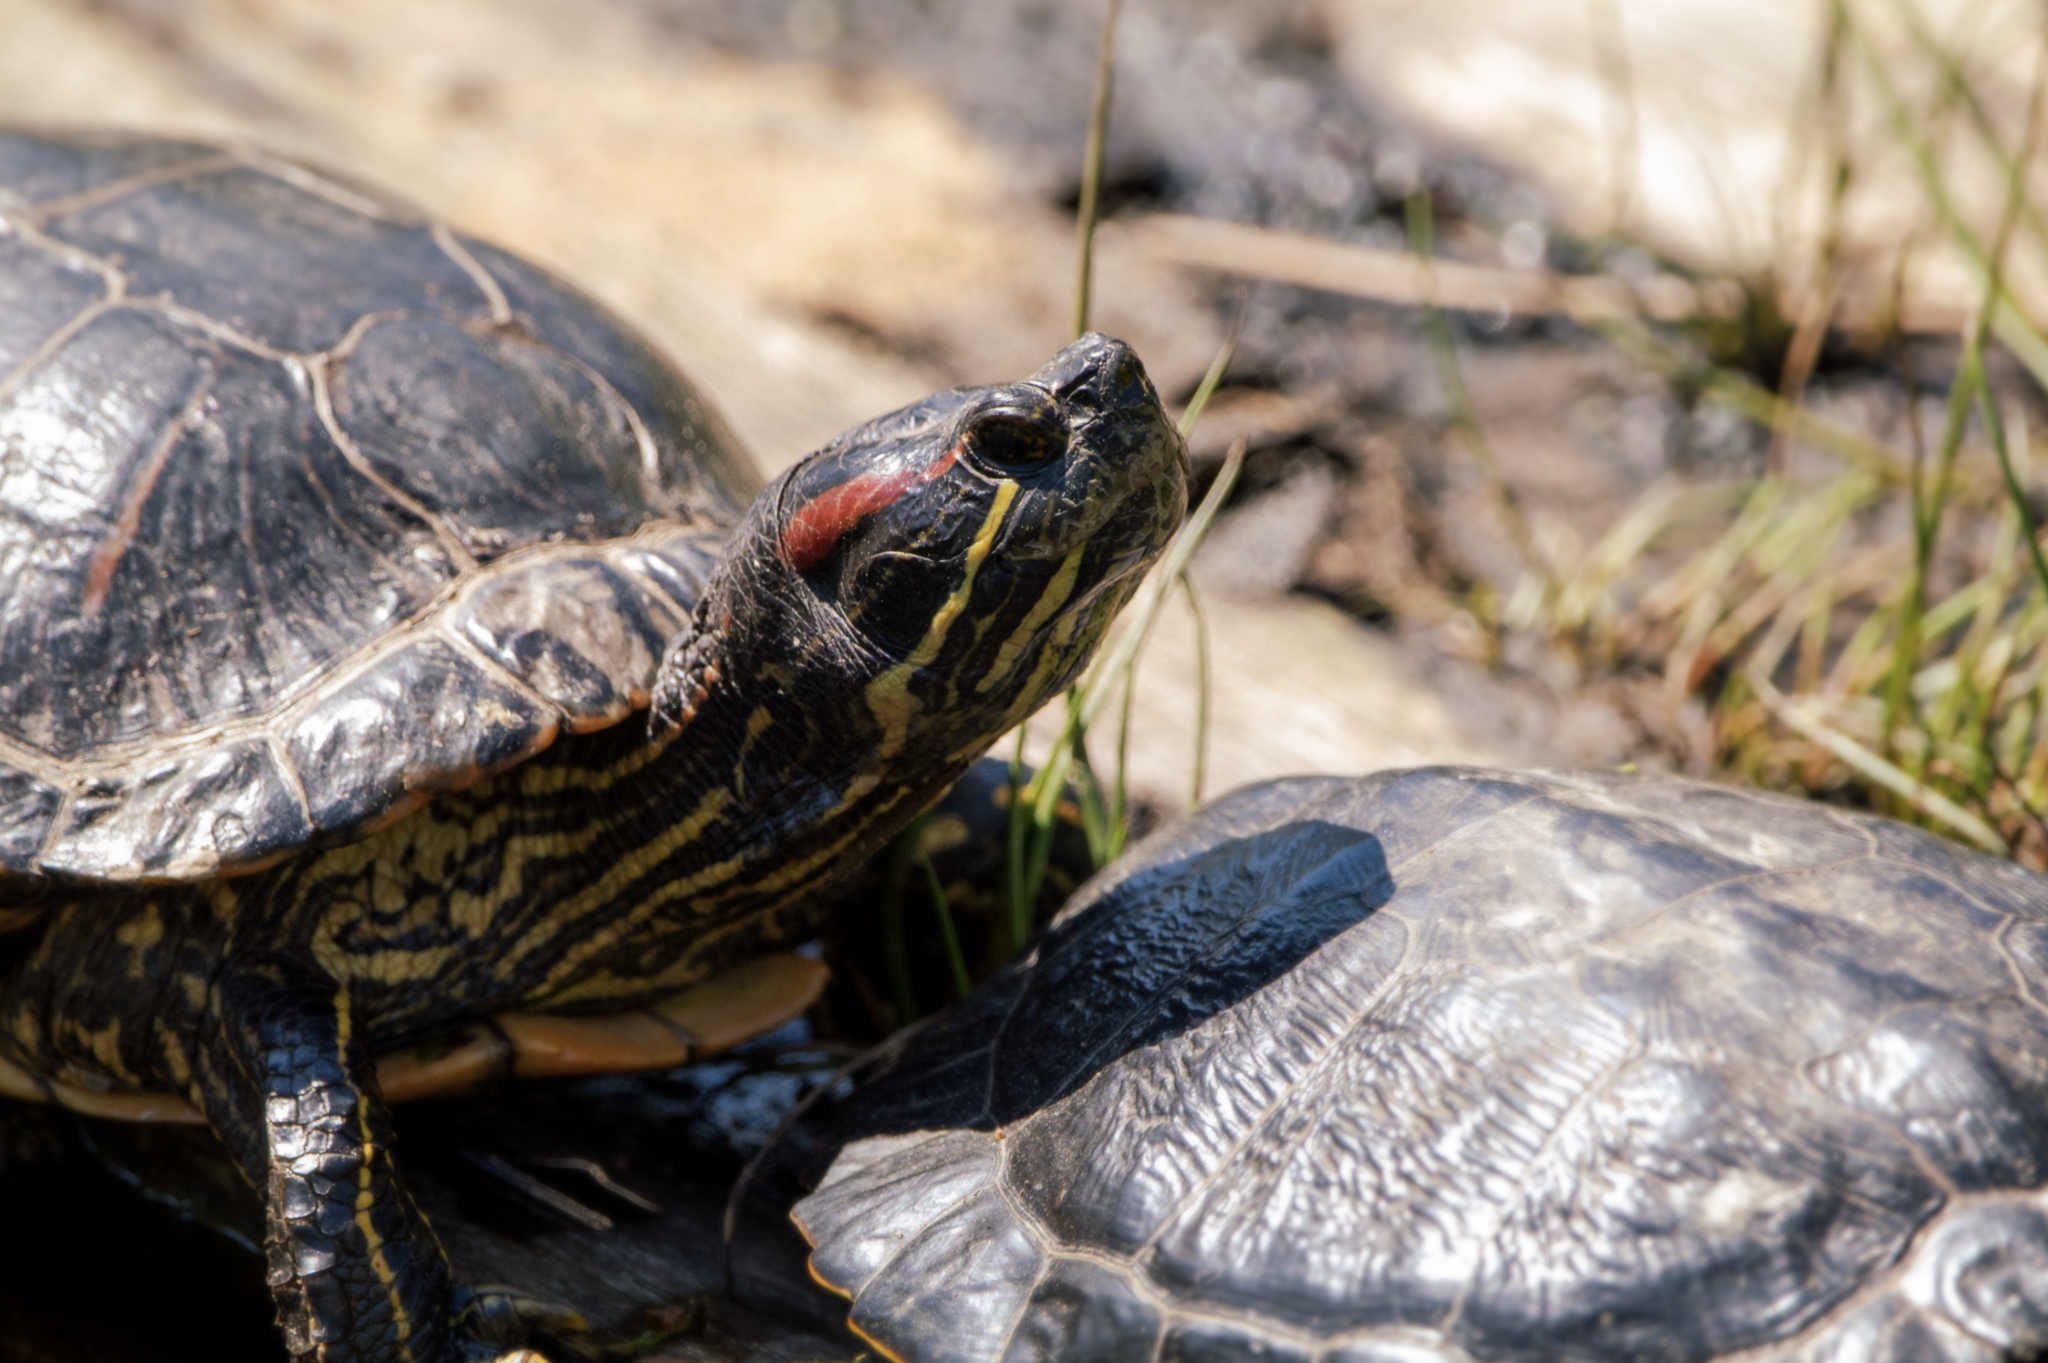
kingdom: Animalia
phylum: Chordata
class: Testudines
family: Emydidae
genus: Trachemys
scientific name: Trachemys scripta
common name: Slider
